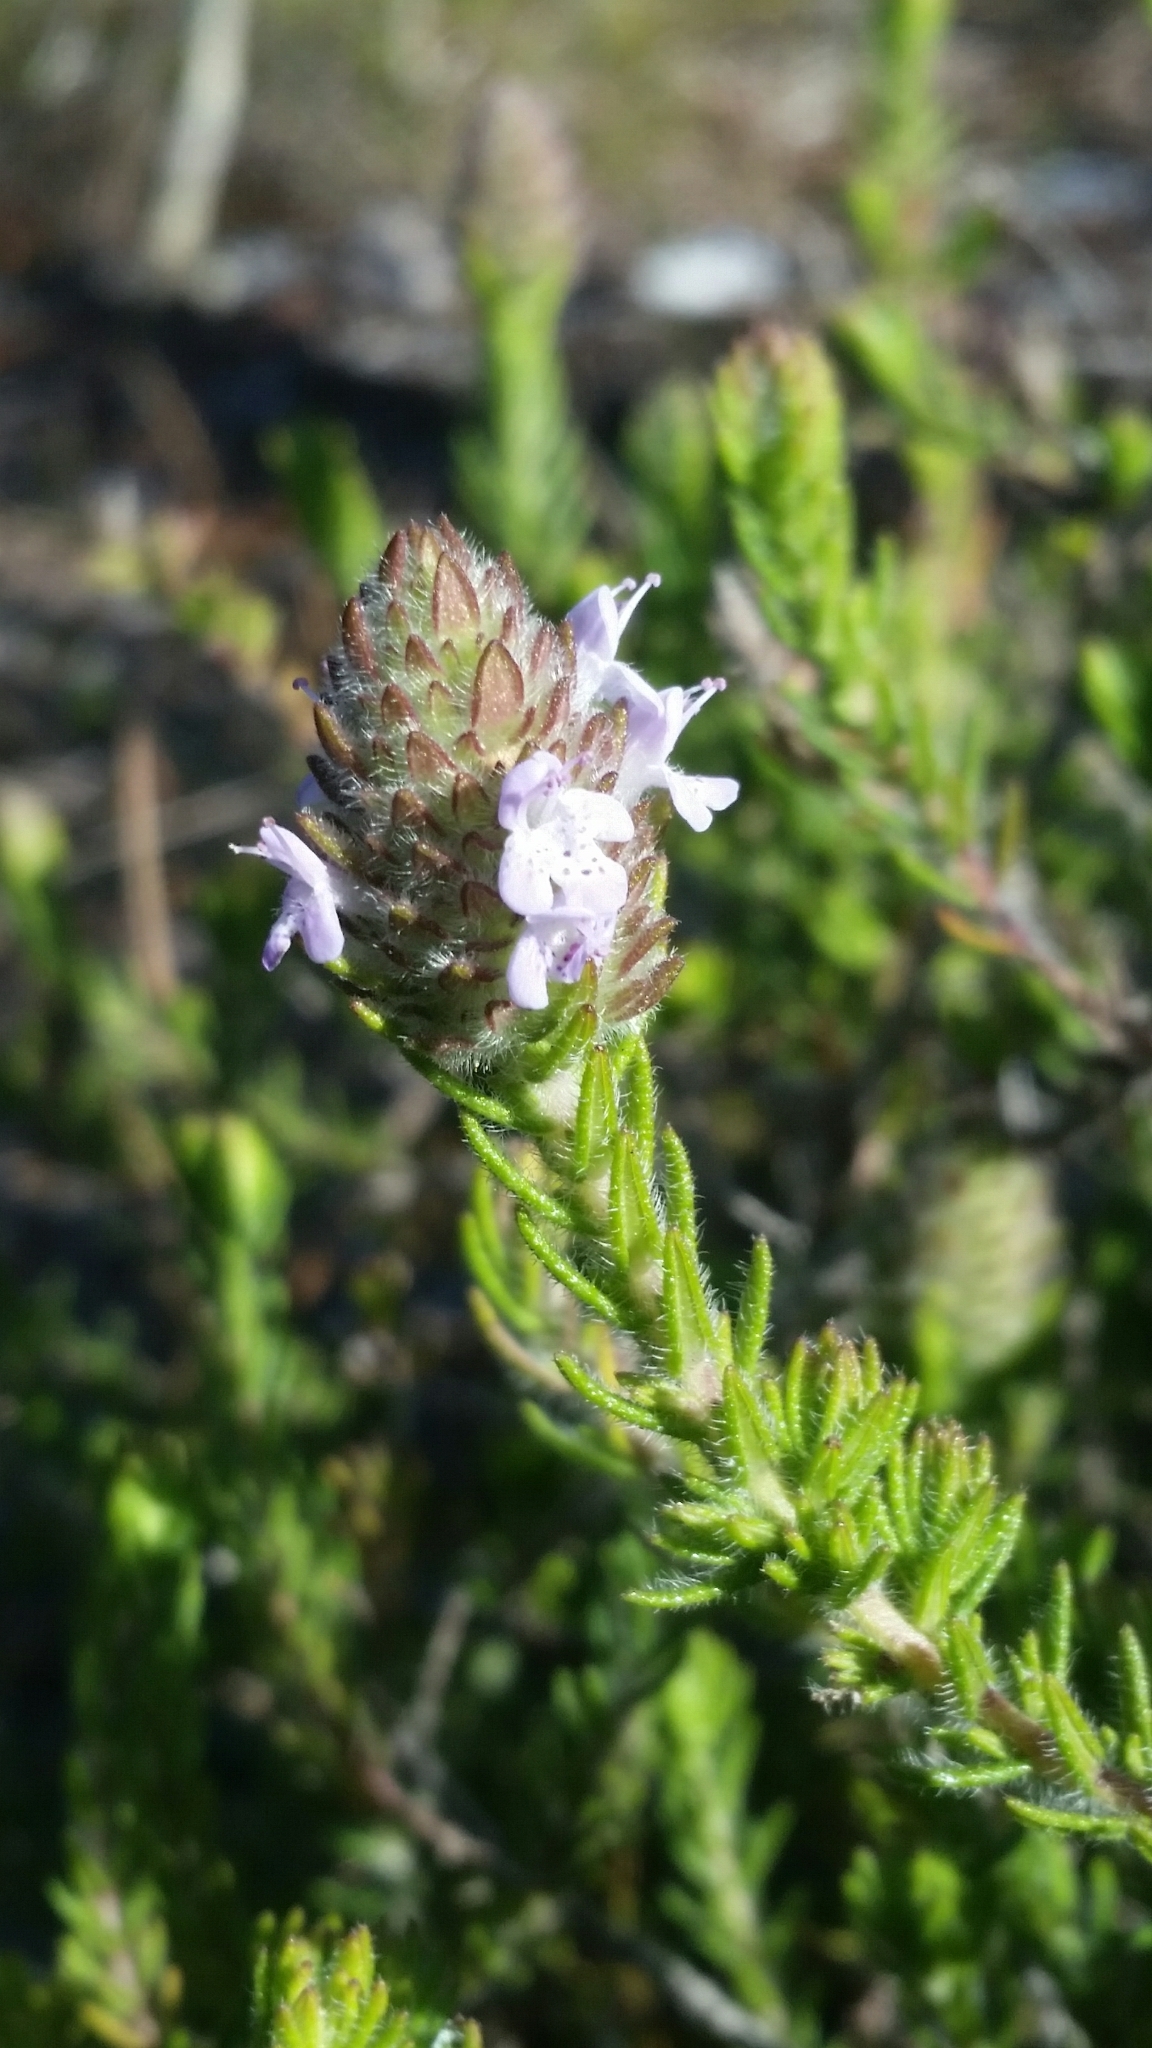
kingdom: Plantae
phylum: Tracheophyta
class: Magnoliopsida
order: Lamiales
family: Lamiaceae
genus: Piloblephis
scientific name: Piloblephis rigida
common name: Wild pennyroyal
